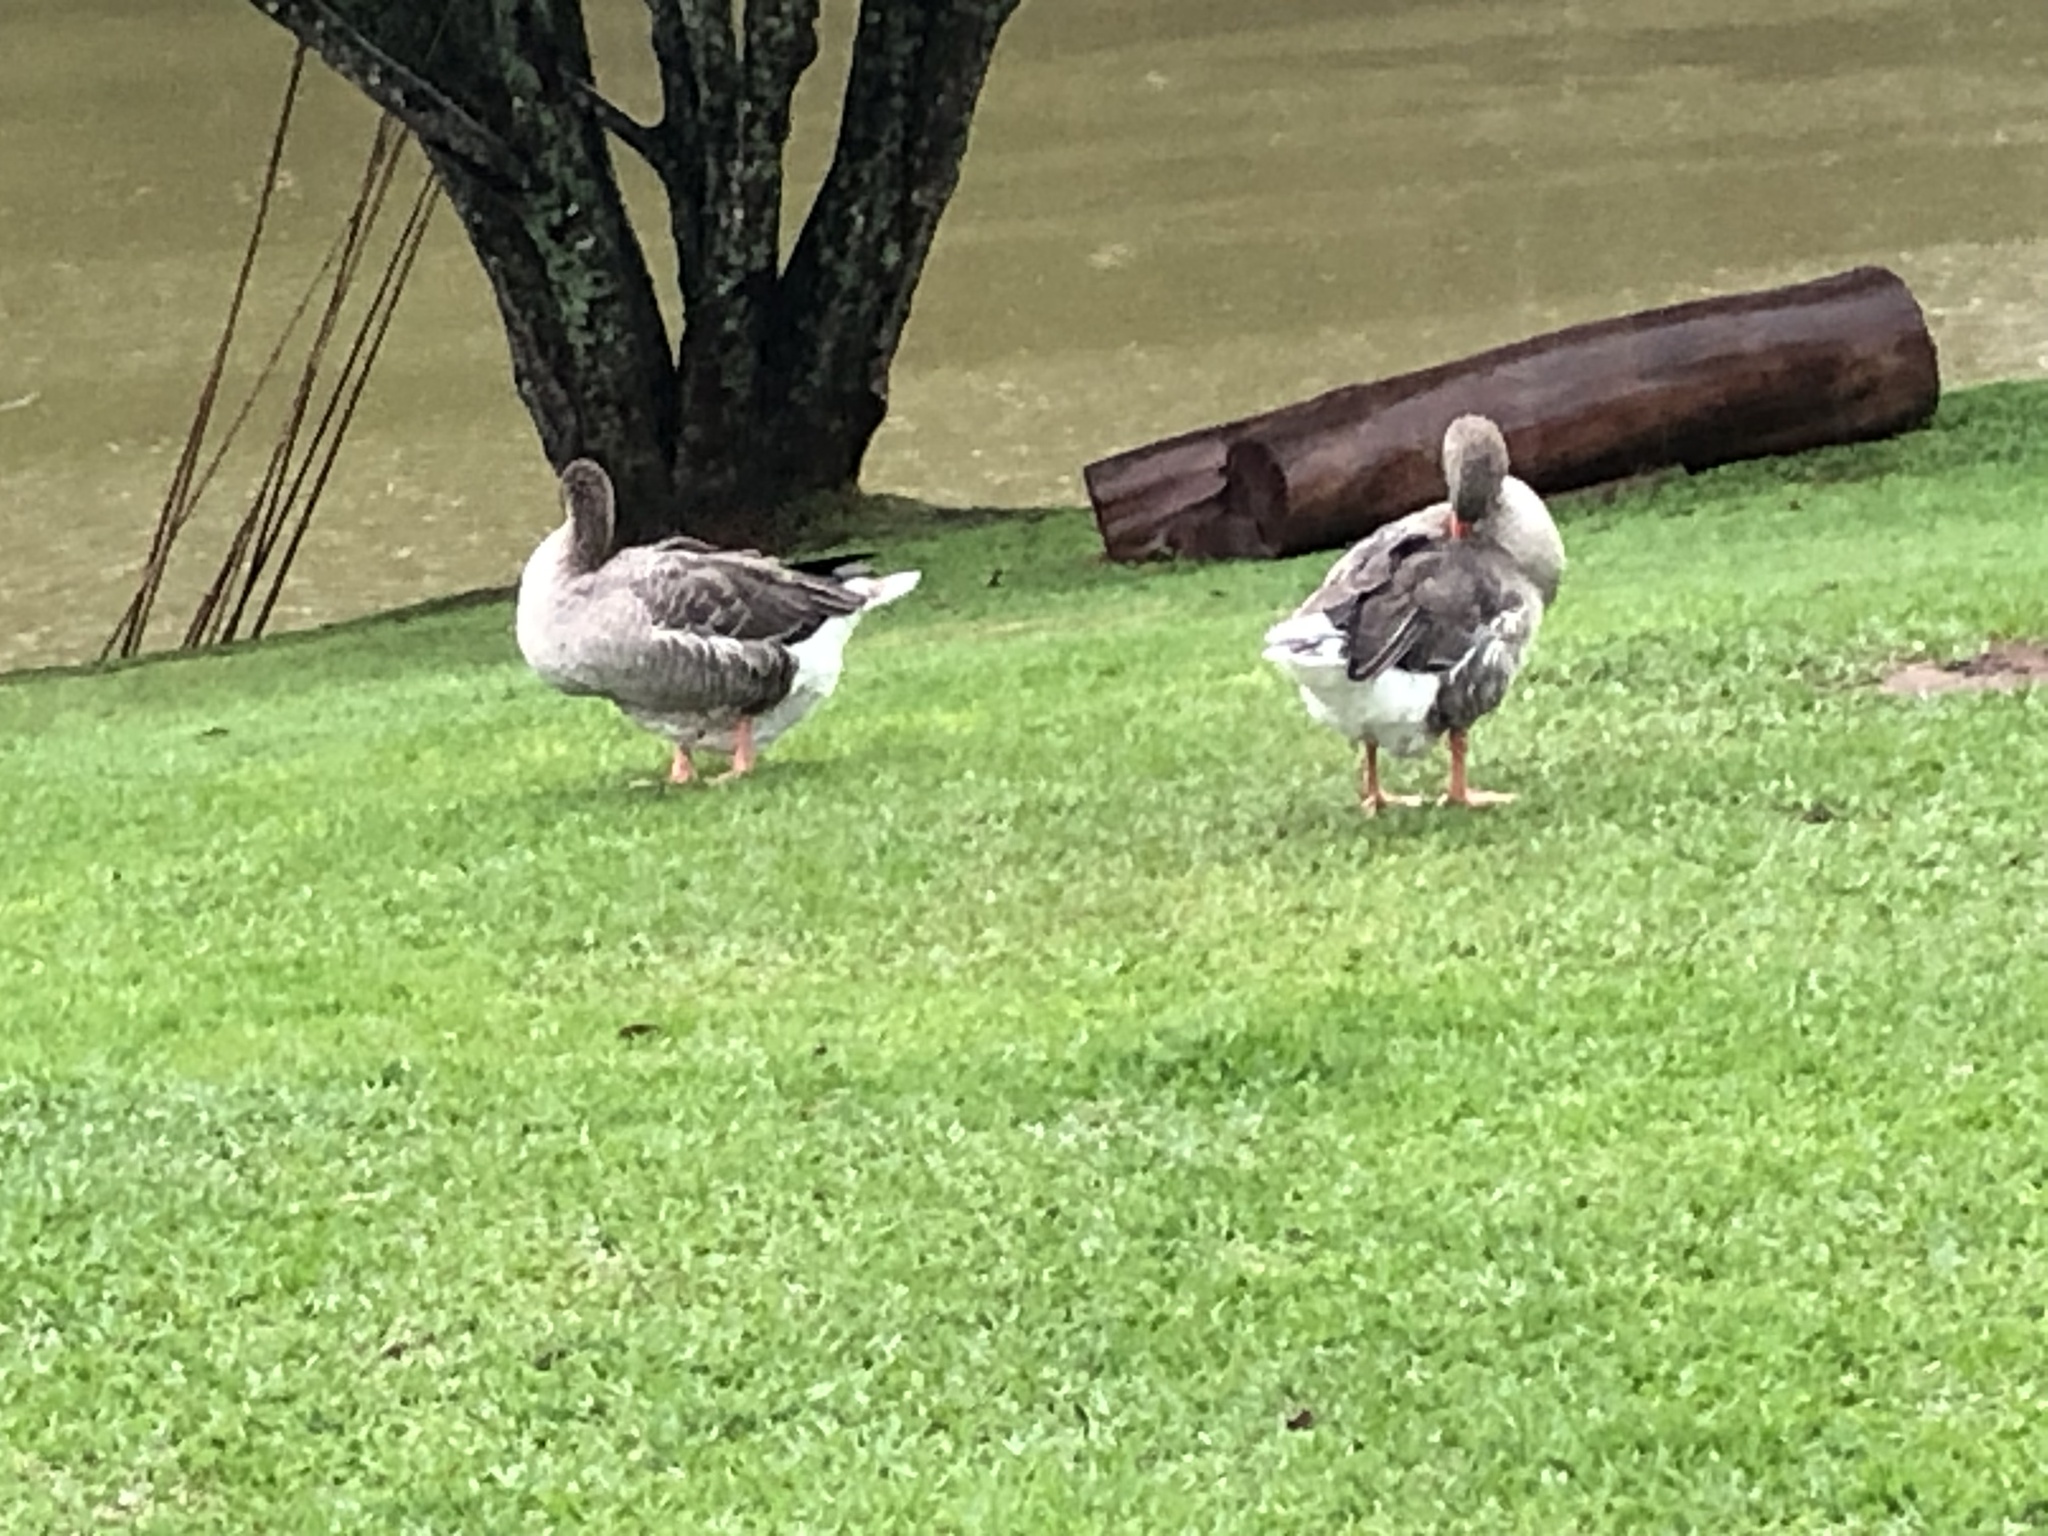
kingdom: Animalia
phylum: Chordata
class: Aves
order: Anseriformes
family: Anatidae
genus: Alopochen
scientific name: Alopochen aegyptiaca
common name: Egyptian goose
